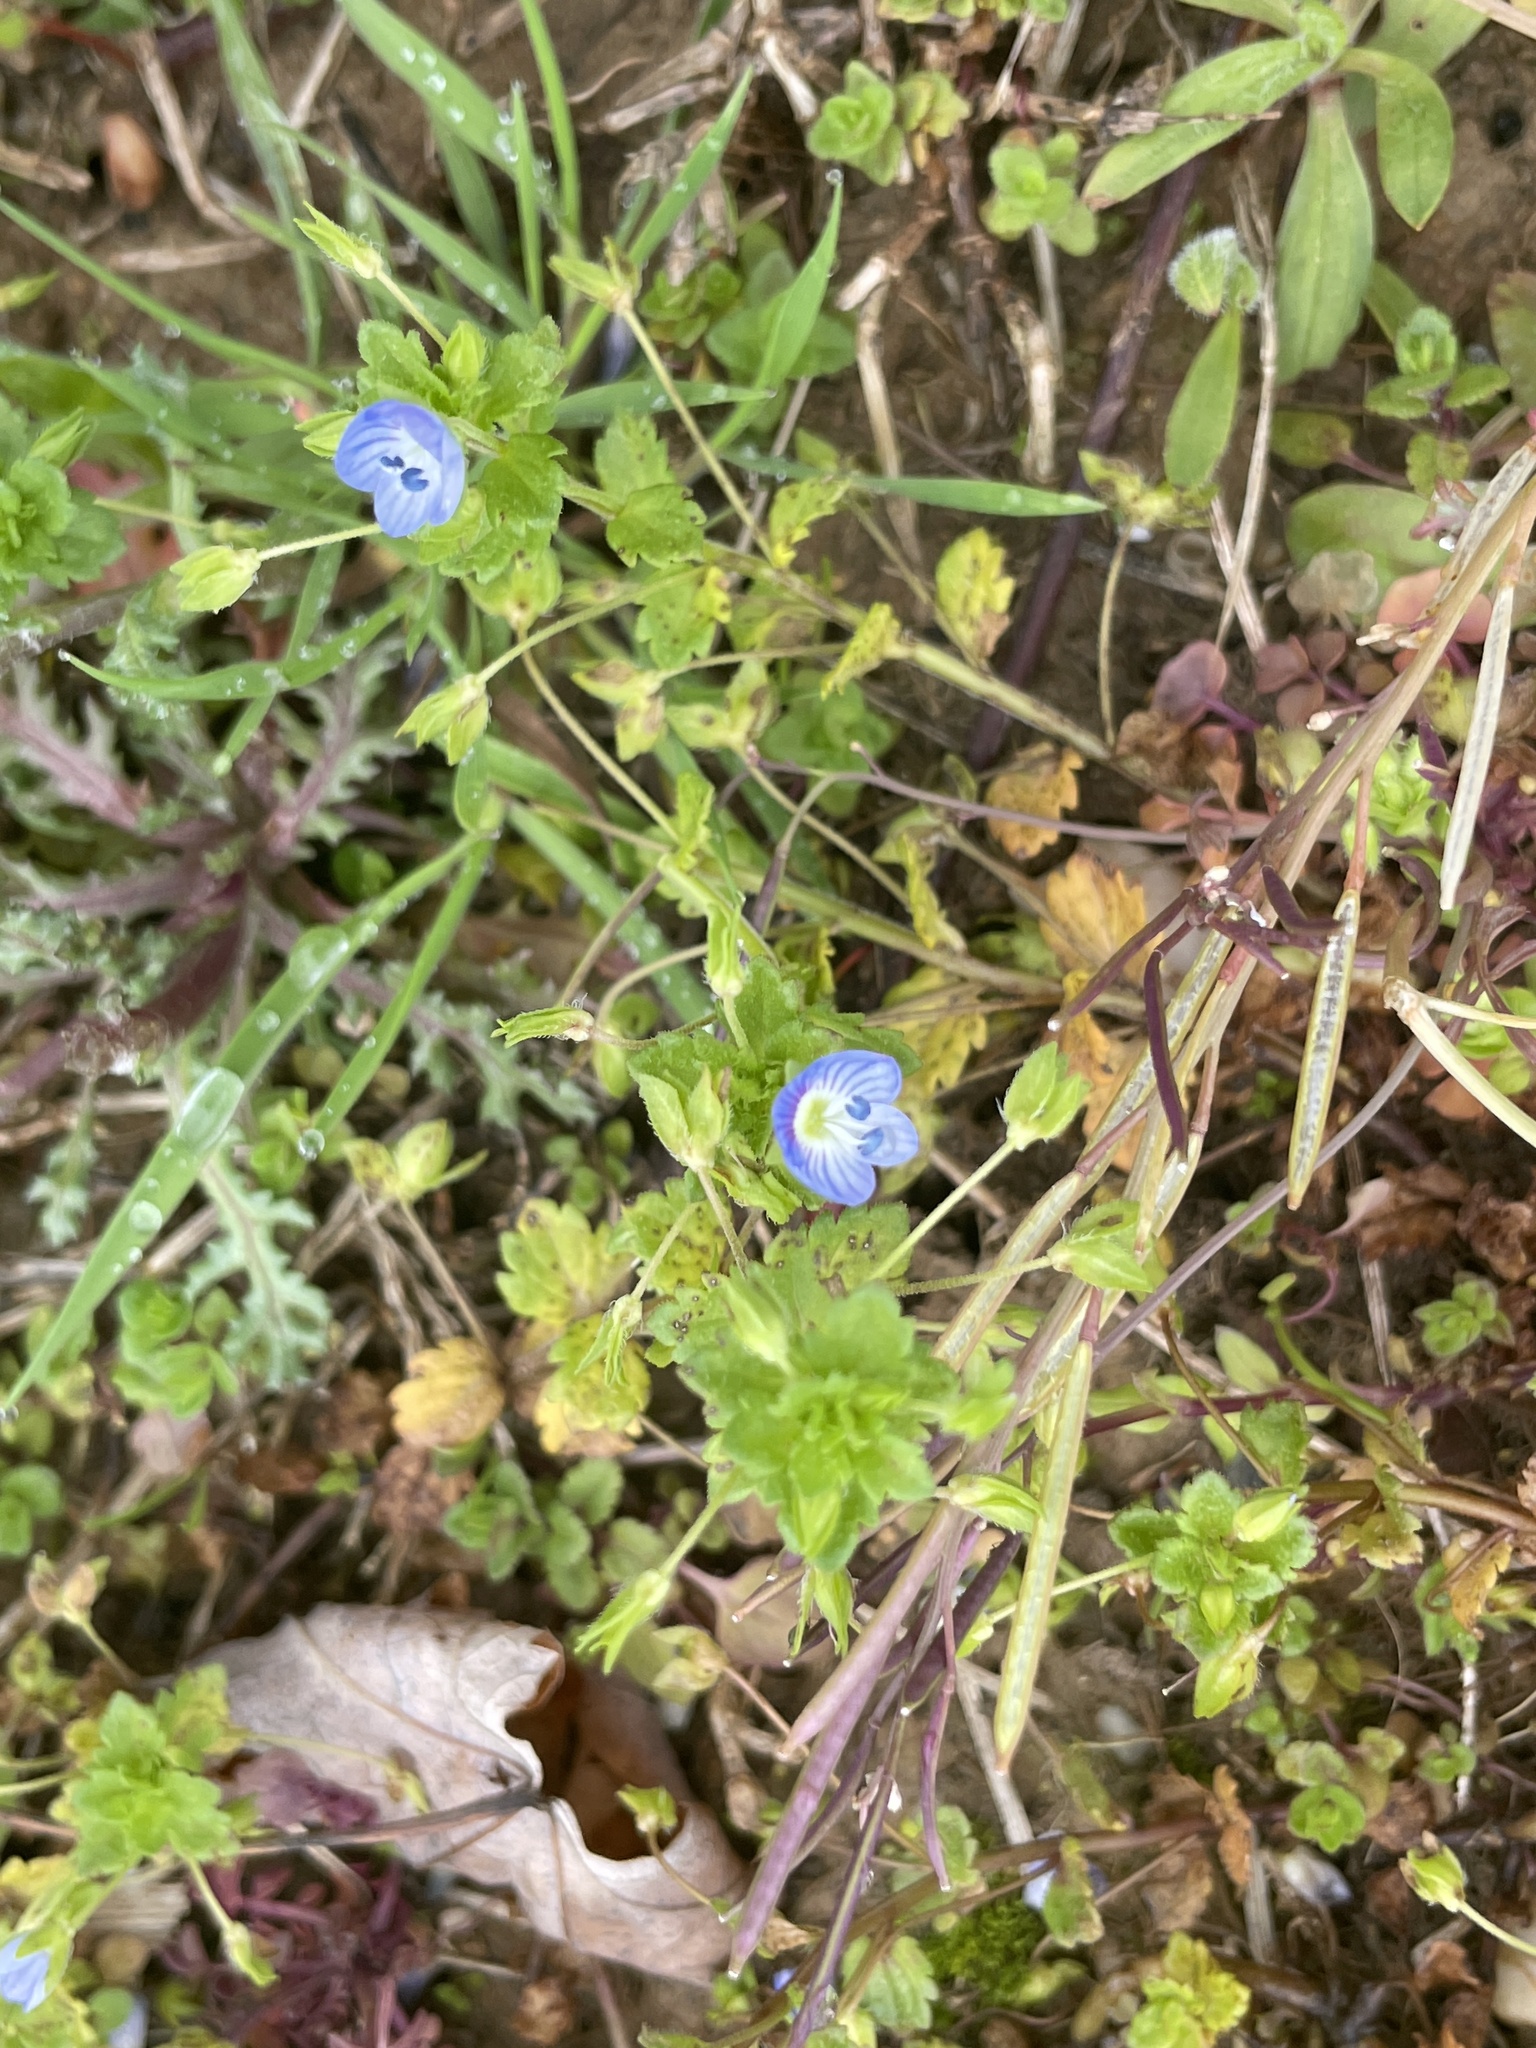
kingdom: Plantae
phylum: Tracheophyta
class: Magnoliopsida
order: Lamiales
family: Plantaginaceae
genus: Veronica
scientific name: Veronica persica
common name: Common field-speedwell
